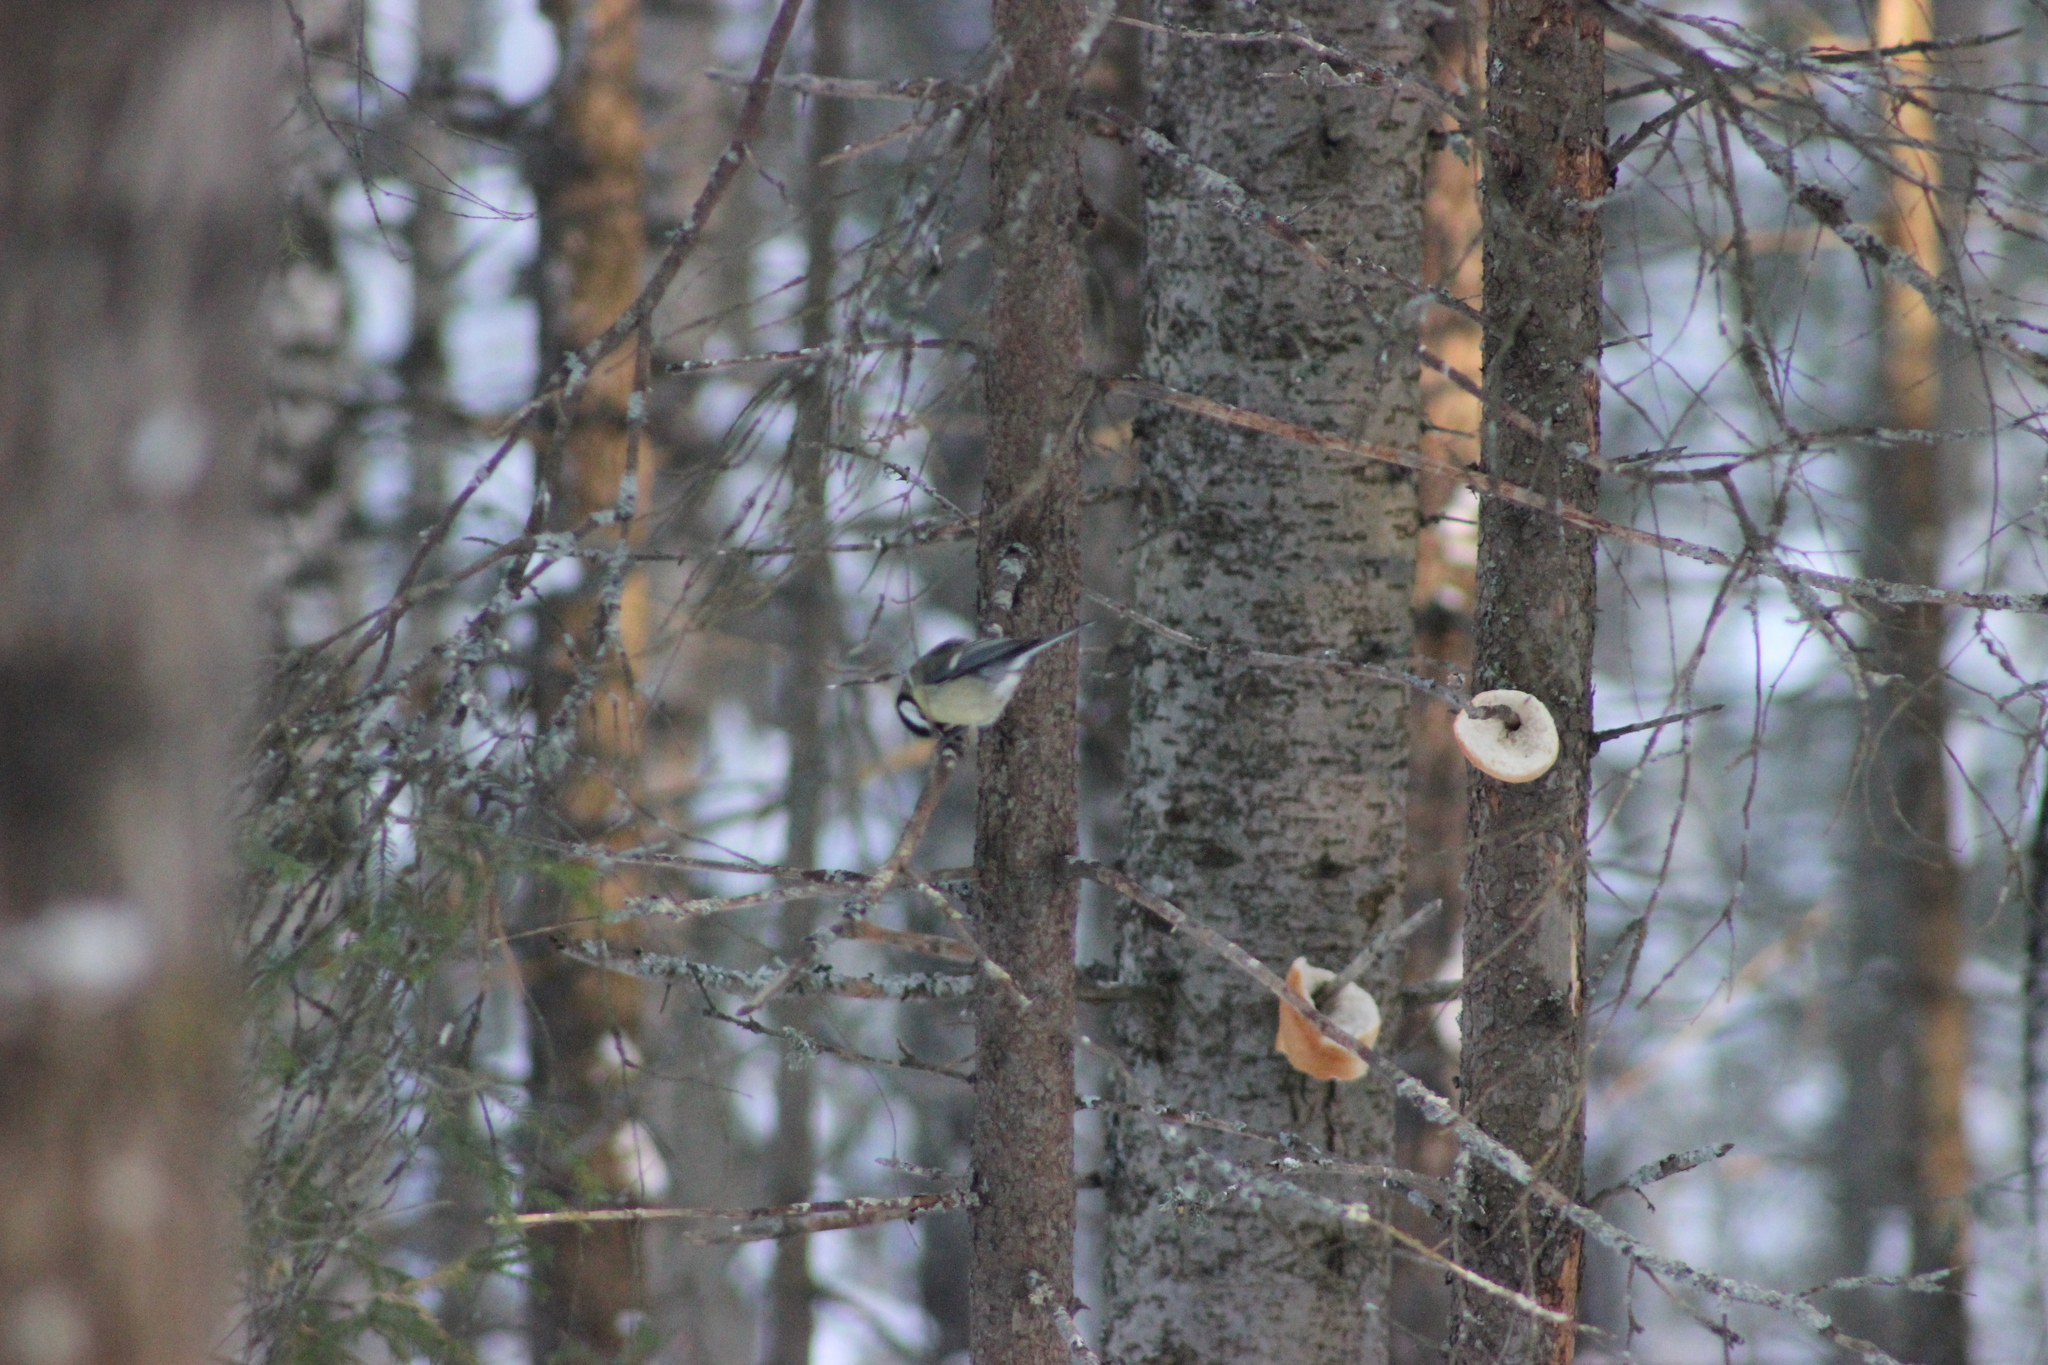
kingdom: Animalia
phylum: Chordata
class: Aves
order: Passeriformes
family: Paridae
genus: Parus
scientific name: Parus major
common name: Great tit
